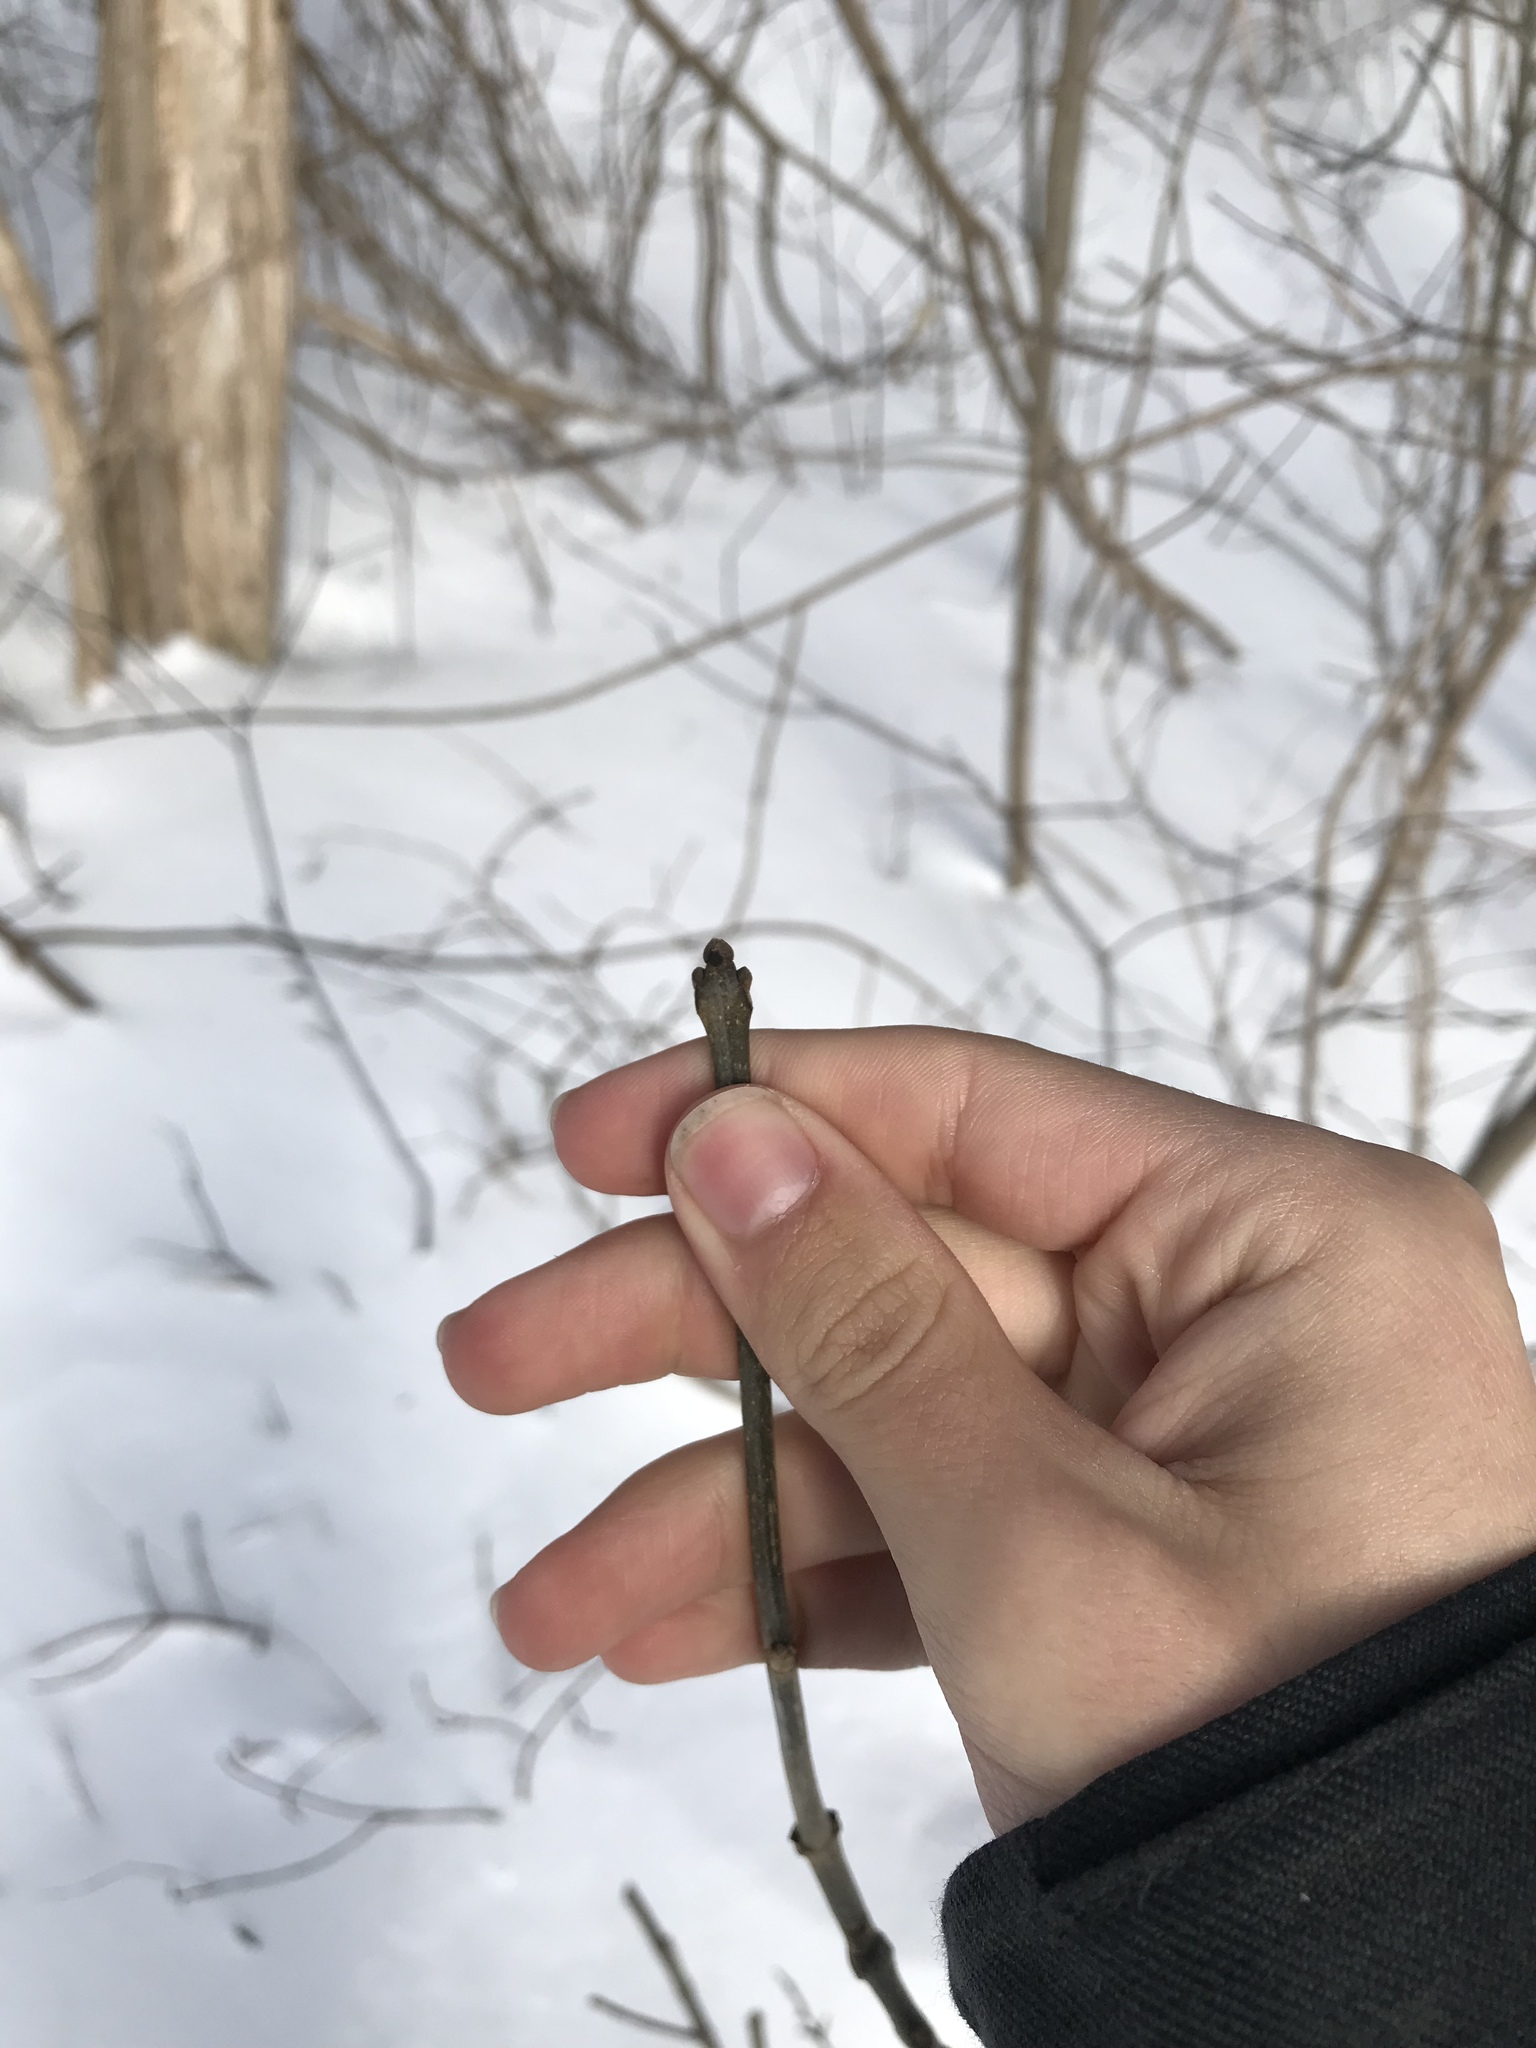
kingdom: Plantae
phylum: Tracheophyta
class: Magnoliopsida
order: Lamiales
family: Oleaceae
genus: Fraxinus
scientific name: Fraxinus nigra
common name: Black ash
